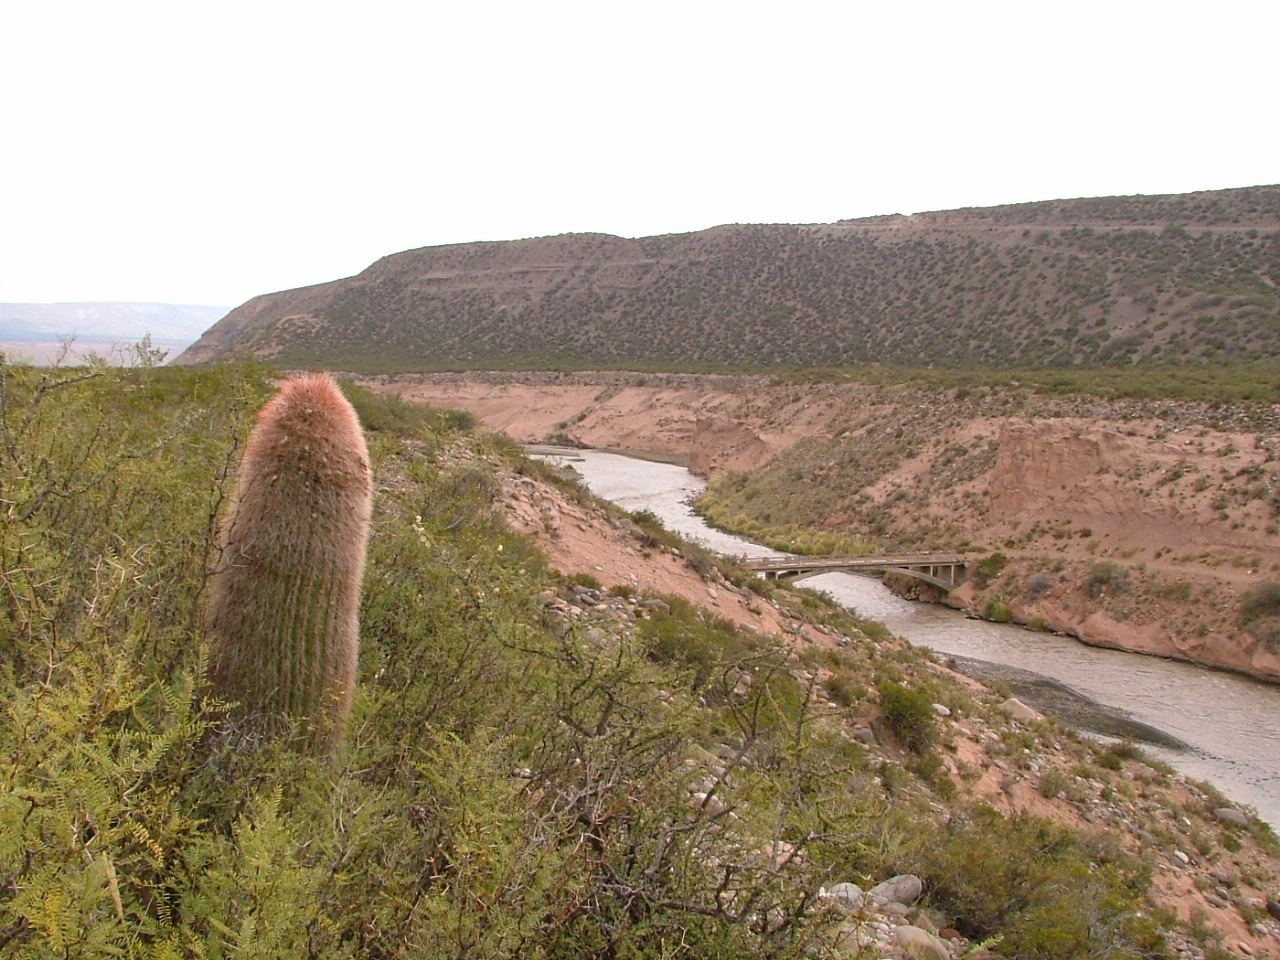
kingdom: Plantae
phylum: Tracheophyta
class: Magnoliopsida
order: Caryophyllales
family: Cactaceae
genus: Denmoza
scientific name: Denmoza rhodacantha
